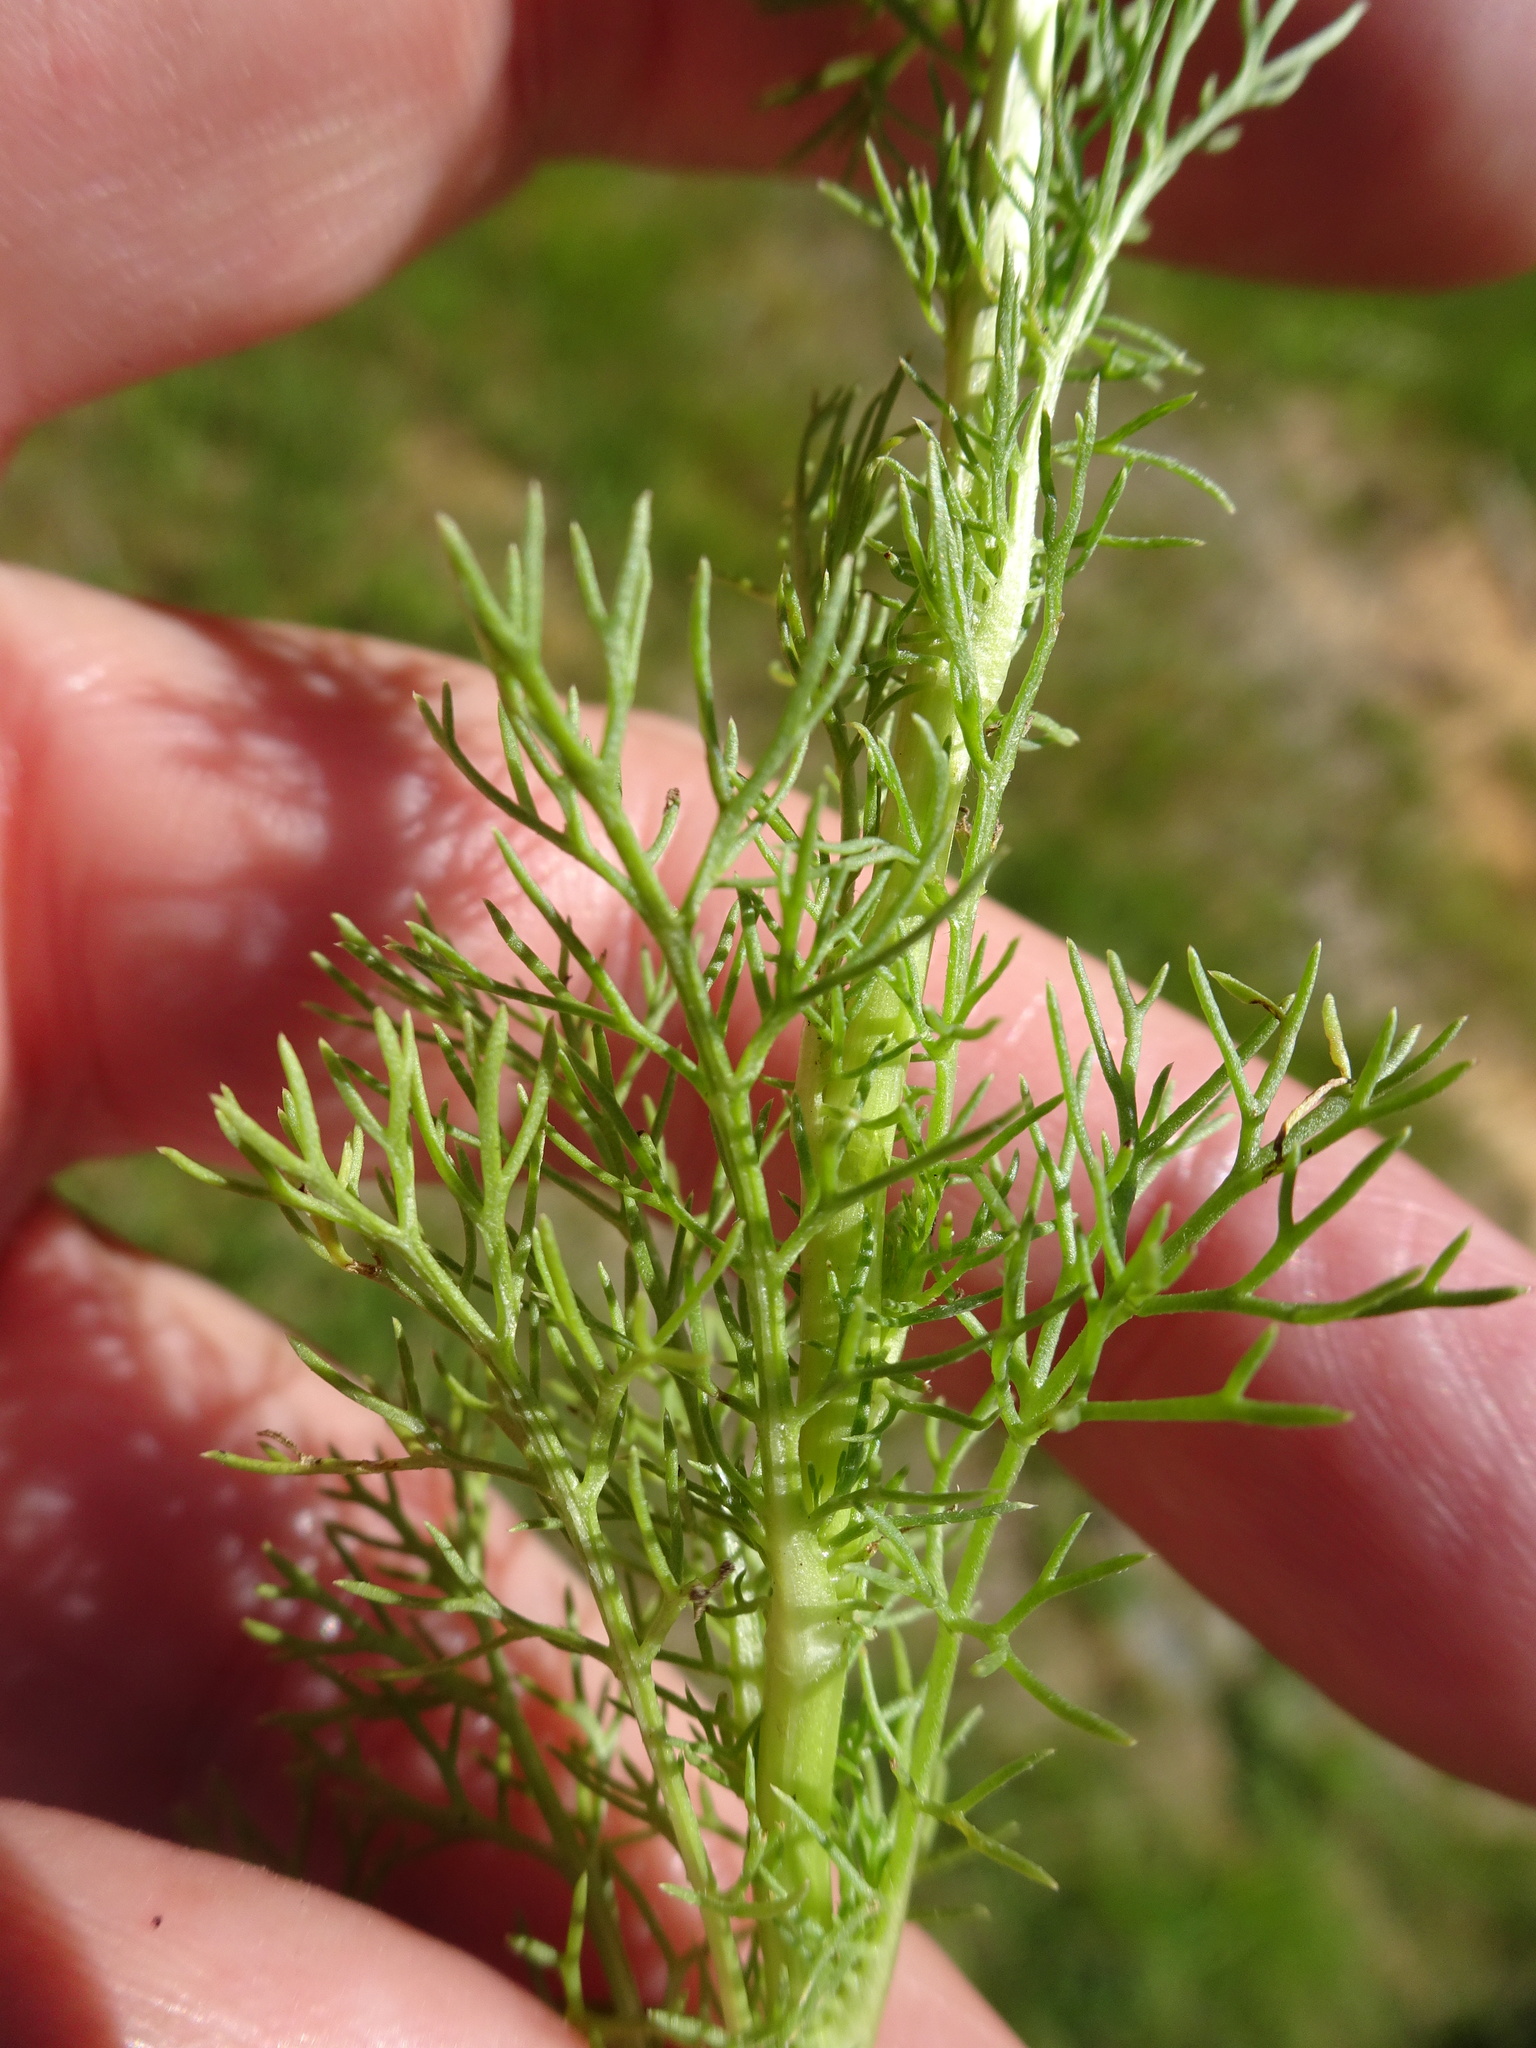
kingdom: Plantae
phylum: Tracheophyta
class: Magnoliopsida
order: Asterales
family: Asteraceae
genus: Tripleurospermum
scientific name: Tripleurospermum inodorum
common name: Scentless mayweed
